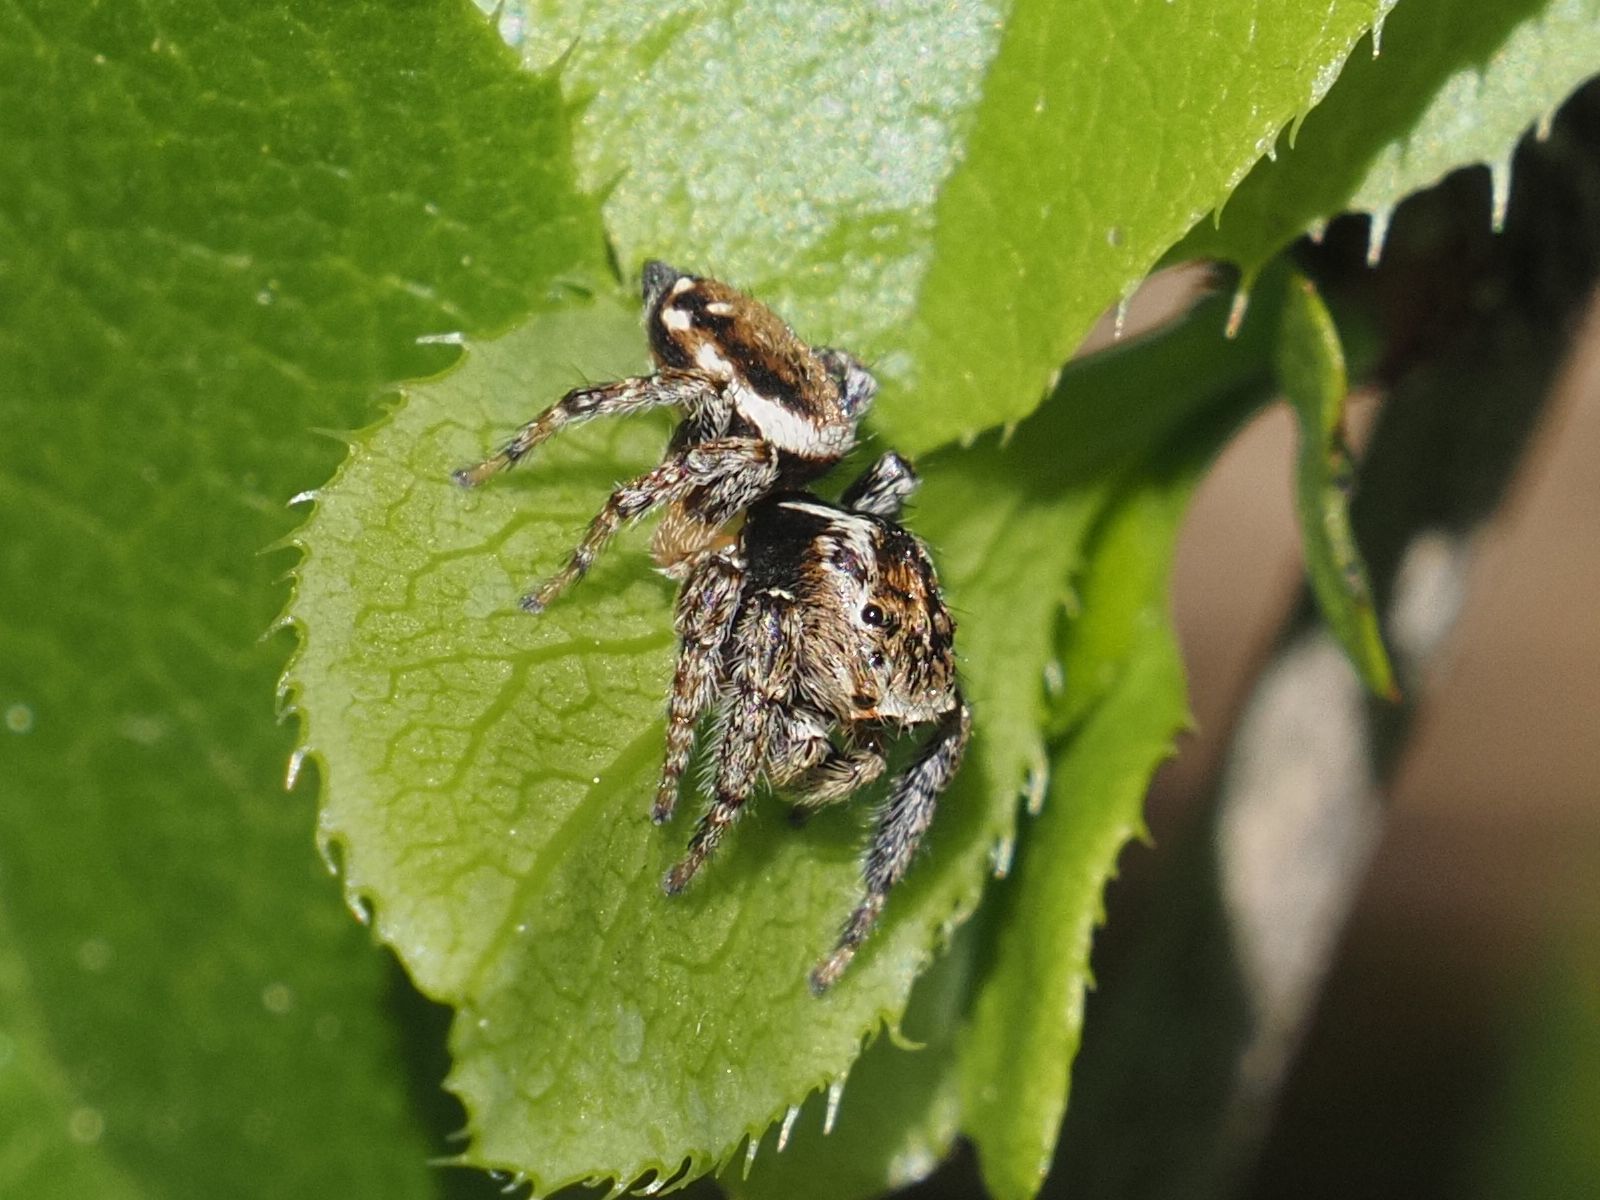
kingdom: Animalia
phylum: Arthropoda
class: Arachnida
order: Araneae
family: Salticidae
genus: Evarcha
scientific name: Evarcha falcata
